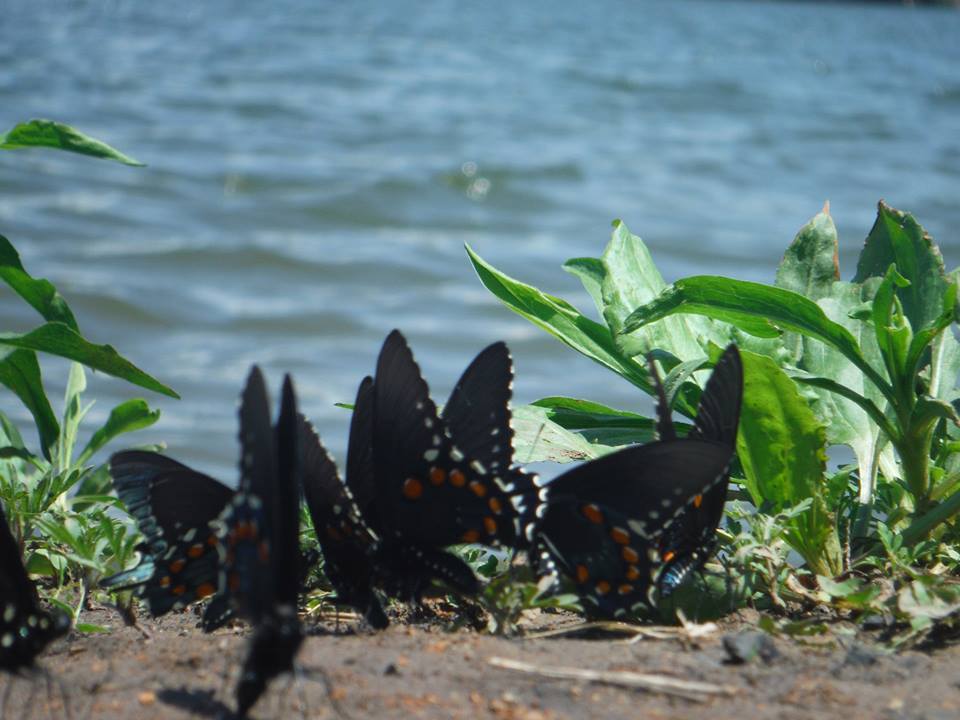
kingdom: Animalia
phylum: Arthropoda
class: Insecta
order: Lepidoptera
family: Papilionidae
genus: Battus
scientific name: Battus philenor
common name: Pipevine swallowtail
